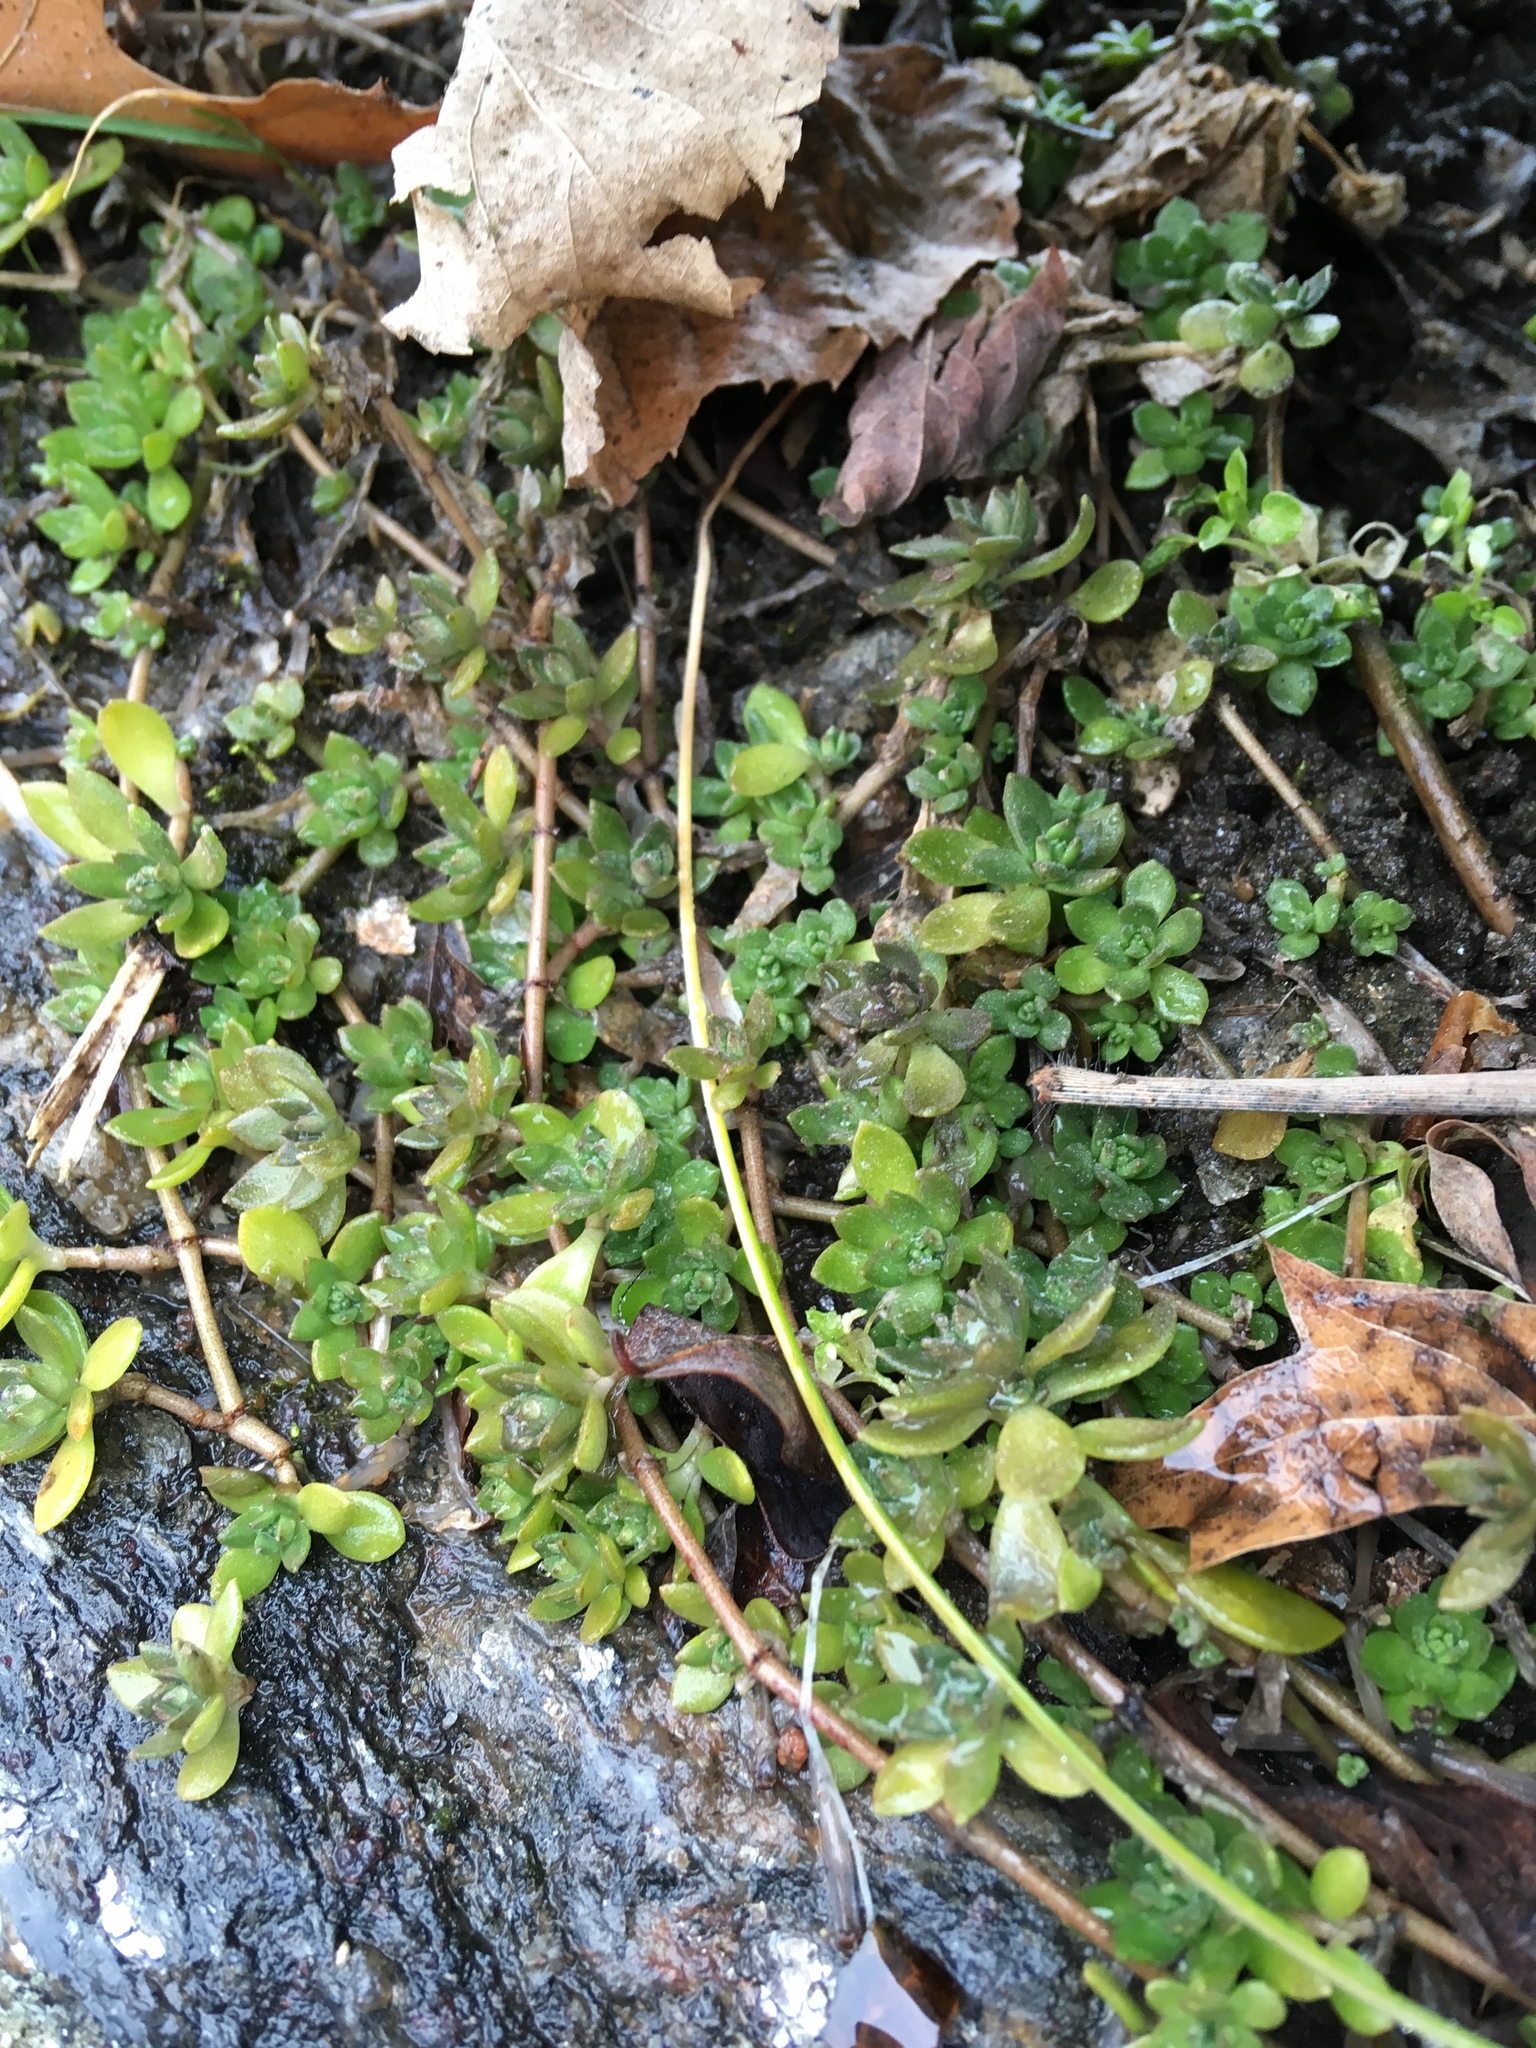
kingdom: Plantae
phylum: Tracheophyta
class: Magnoliopsida
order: Saxifragales
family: Crassulaceae
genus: Sedum
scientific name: Sedum sarmentosum
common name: Stringy stonecrop
